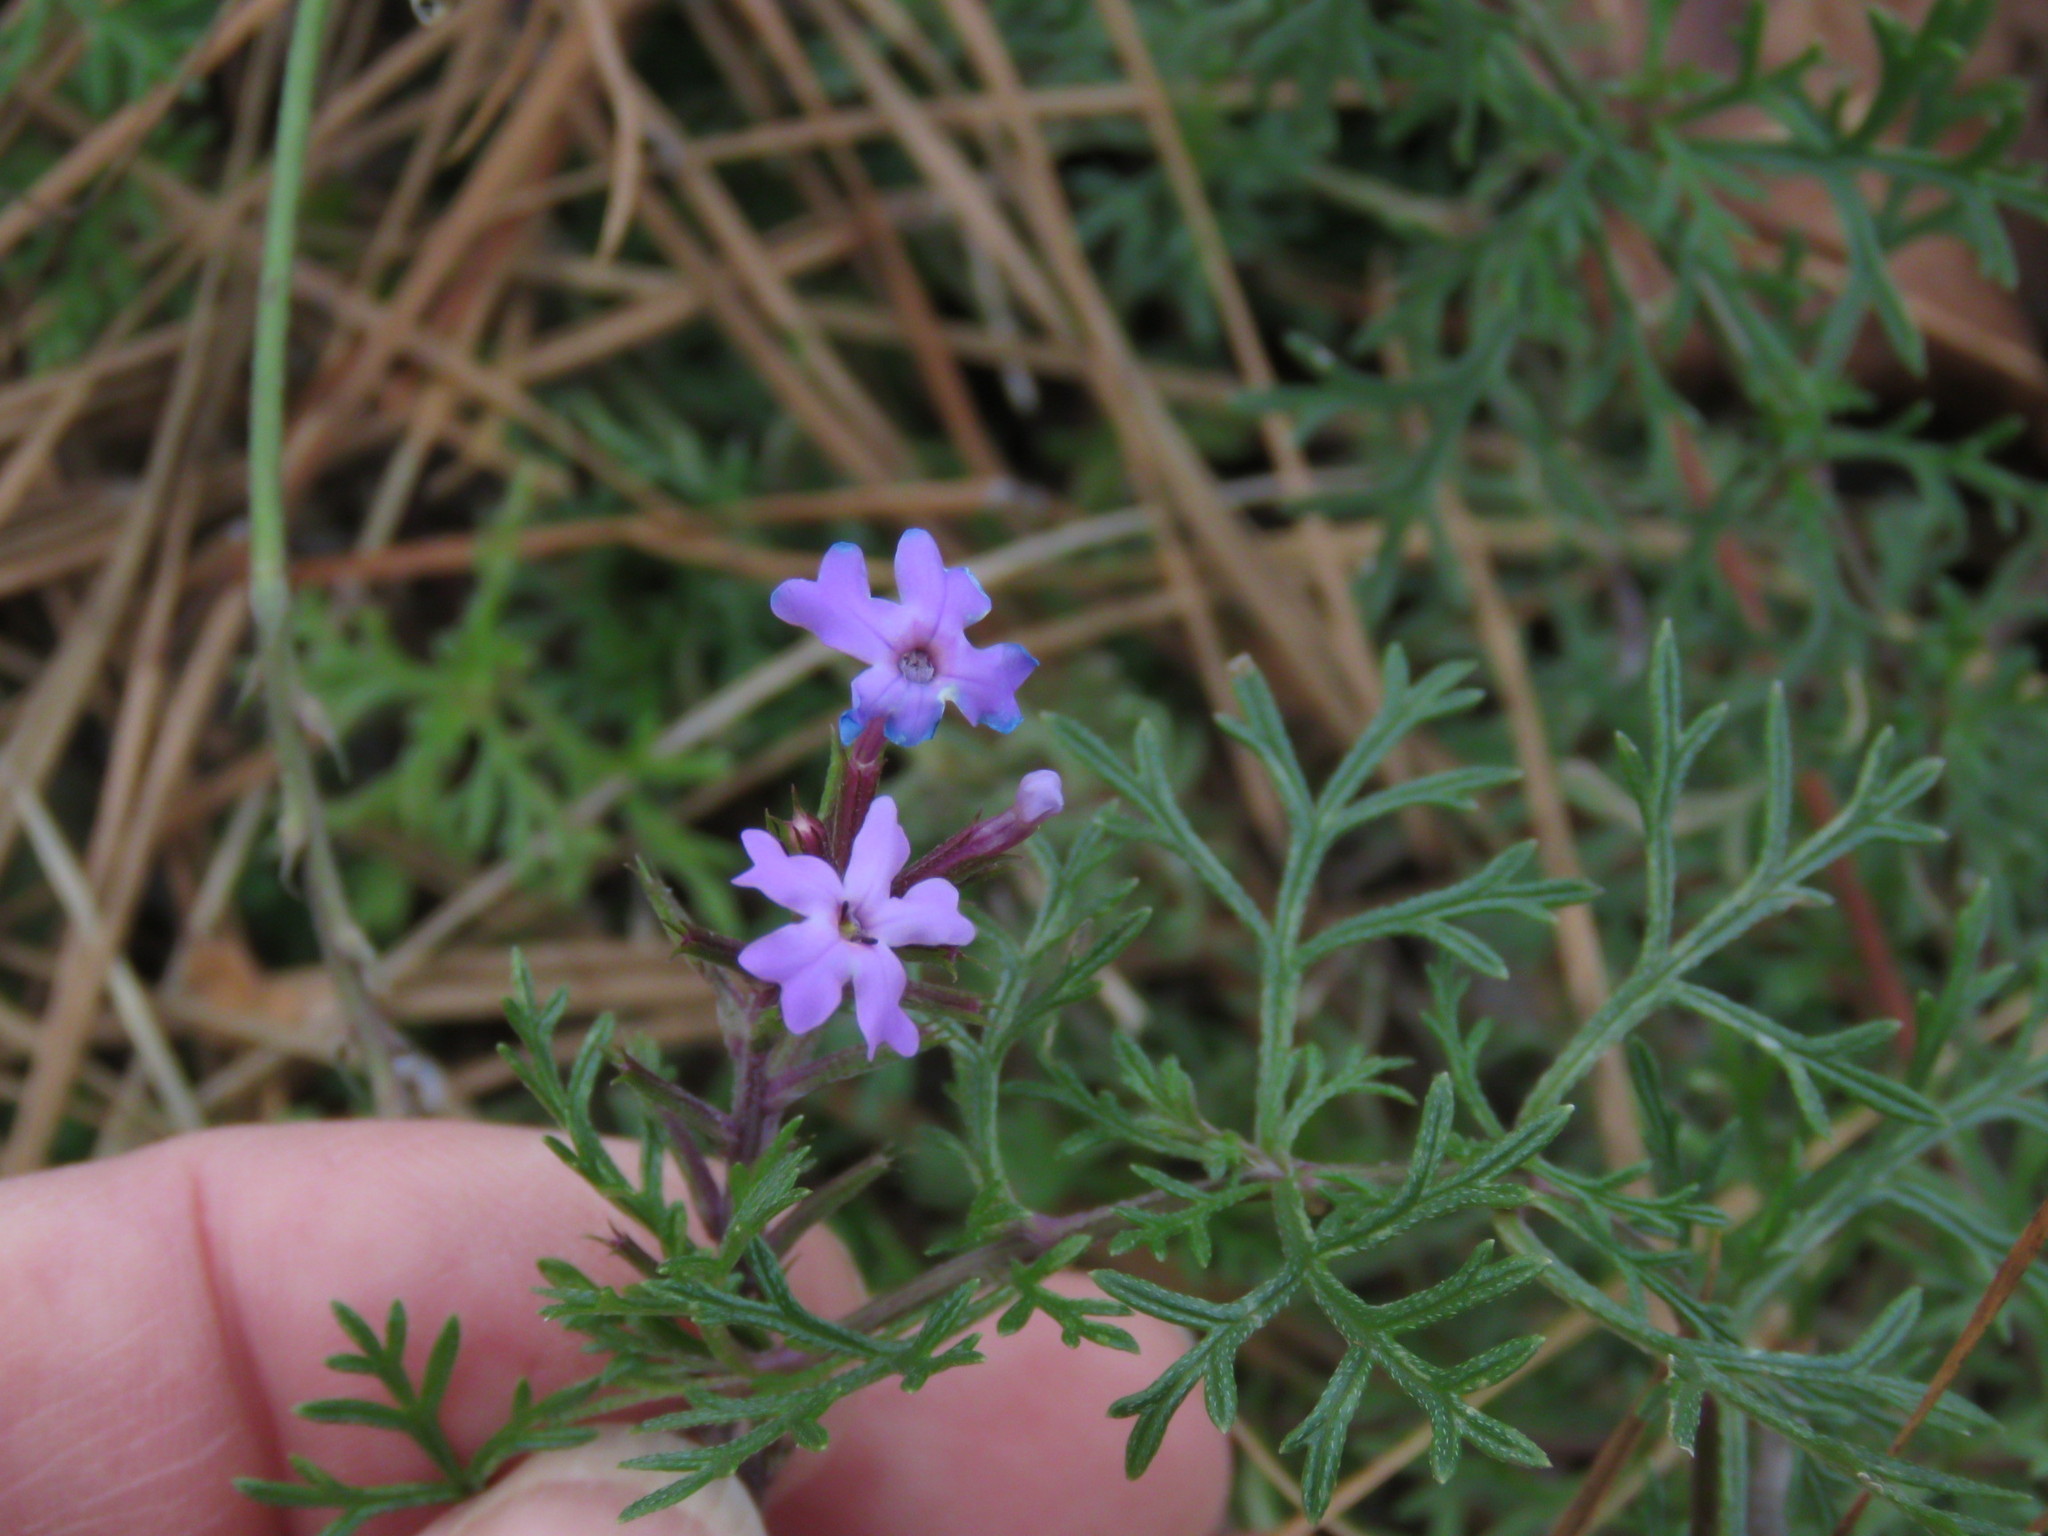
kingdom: Plantae
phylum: Tracheophyta
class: Magnoliopsida
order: Lamiales
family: Verbenaceae
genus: Verbena
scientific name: Verbena bipinnatifida
